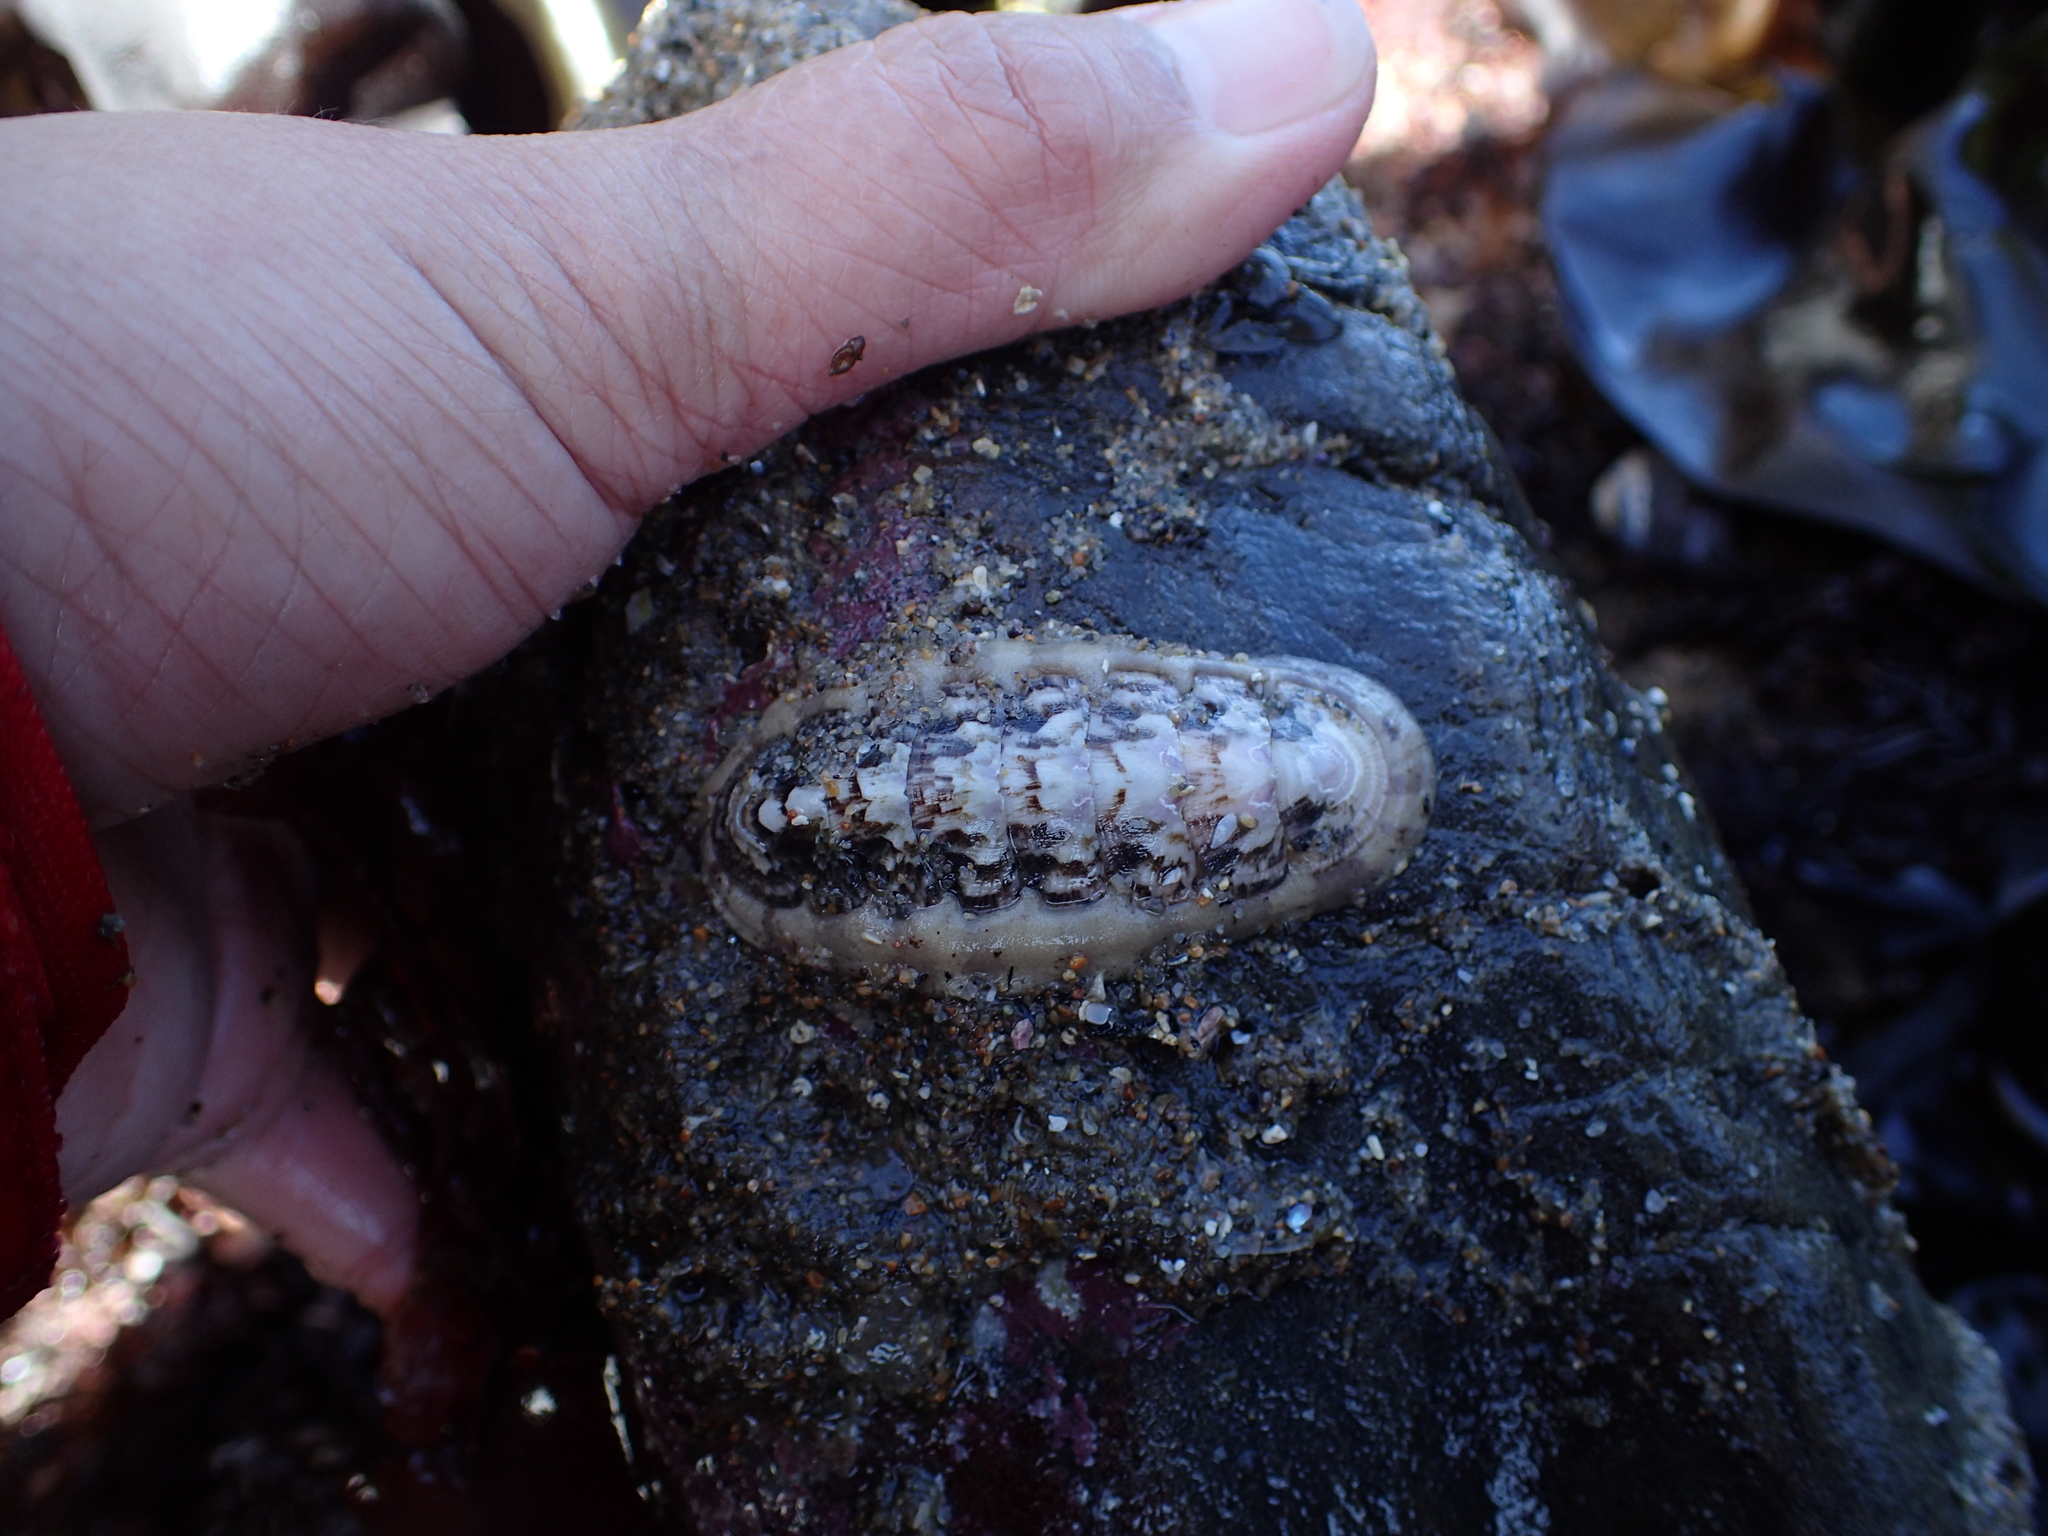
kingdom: Animalia
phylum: Mollusca
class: Polyplacophora
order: Chitonida
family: Ischnochitonidae
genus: Stenoplax
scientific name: Stenoplax heathiana
